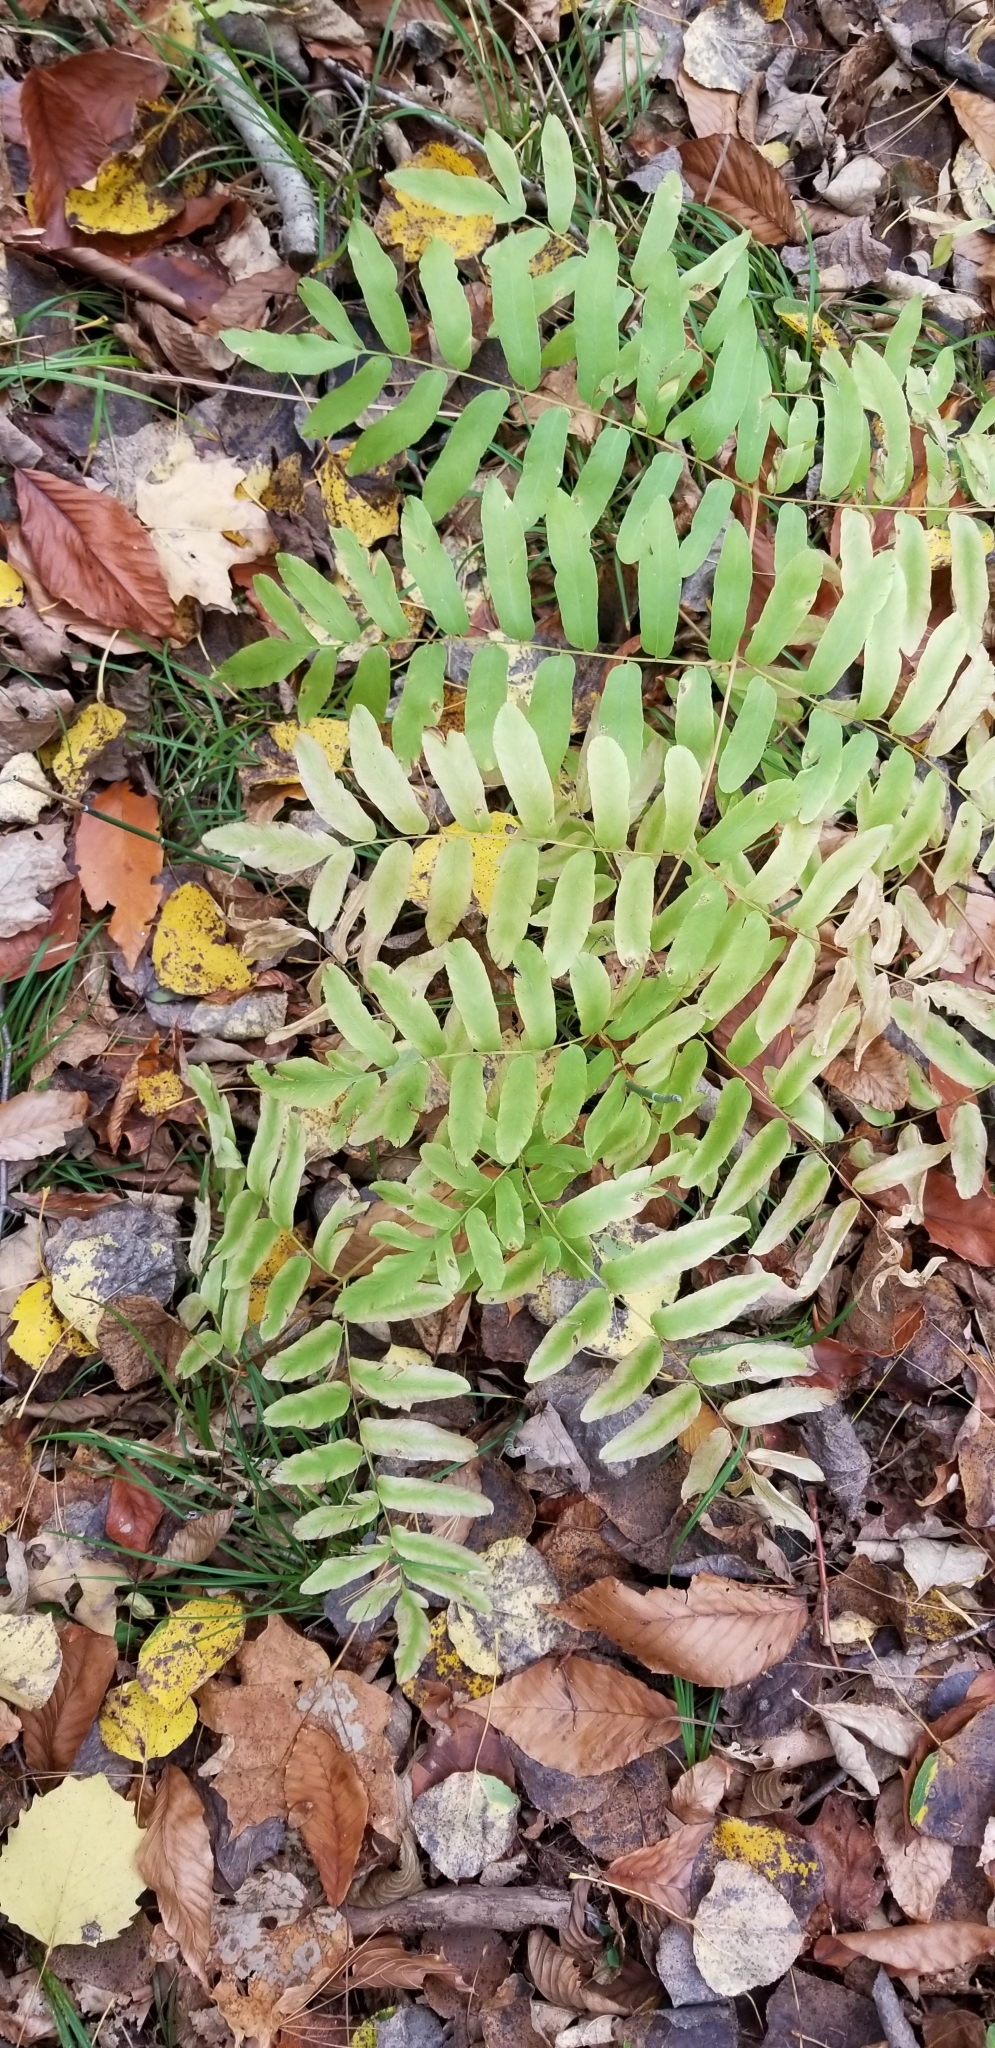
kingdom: Plantae
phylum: Tracheophyta
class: Polypodiopsida
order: Osmundales
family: Osmundaceae
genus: Osmunda
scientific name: Osmunda spectabilis
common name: American royal fern
